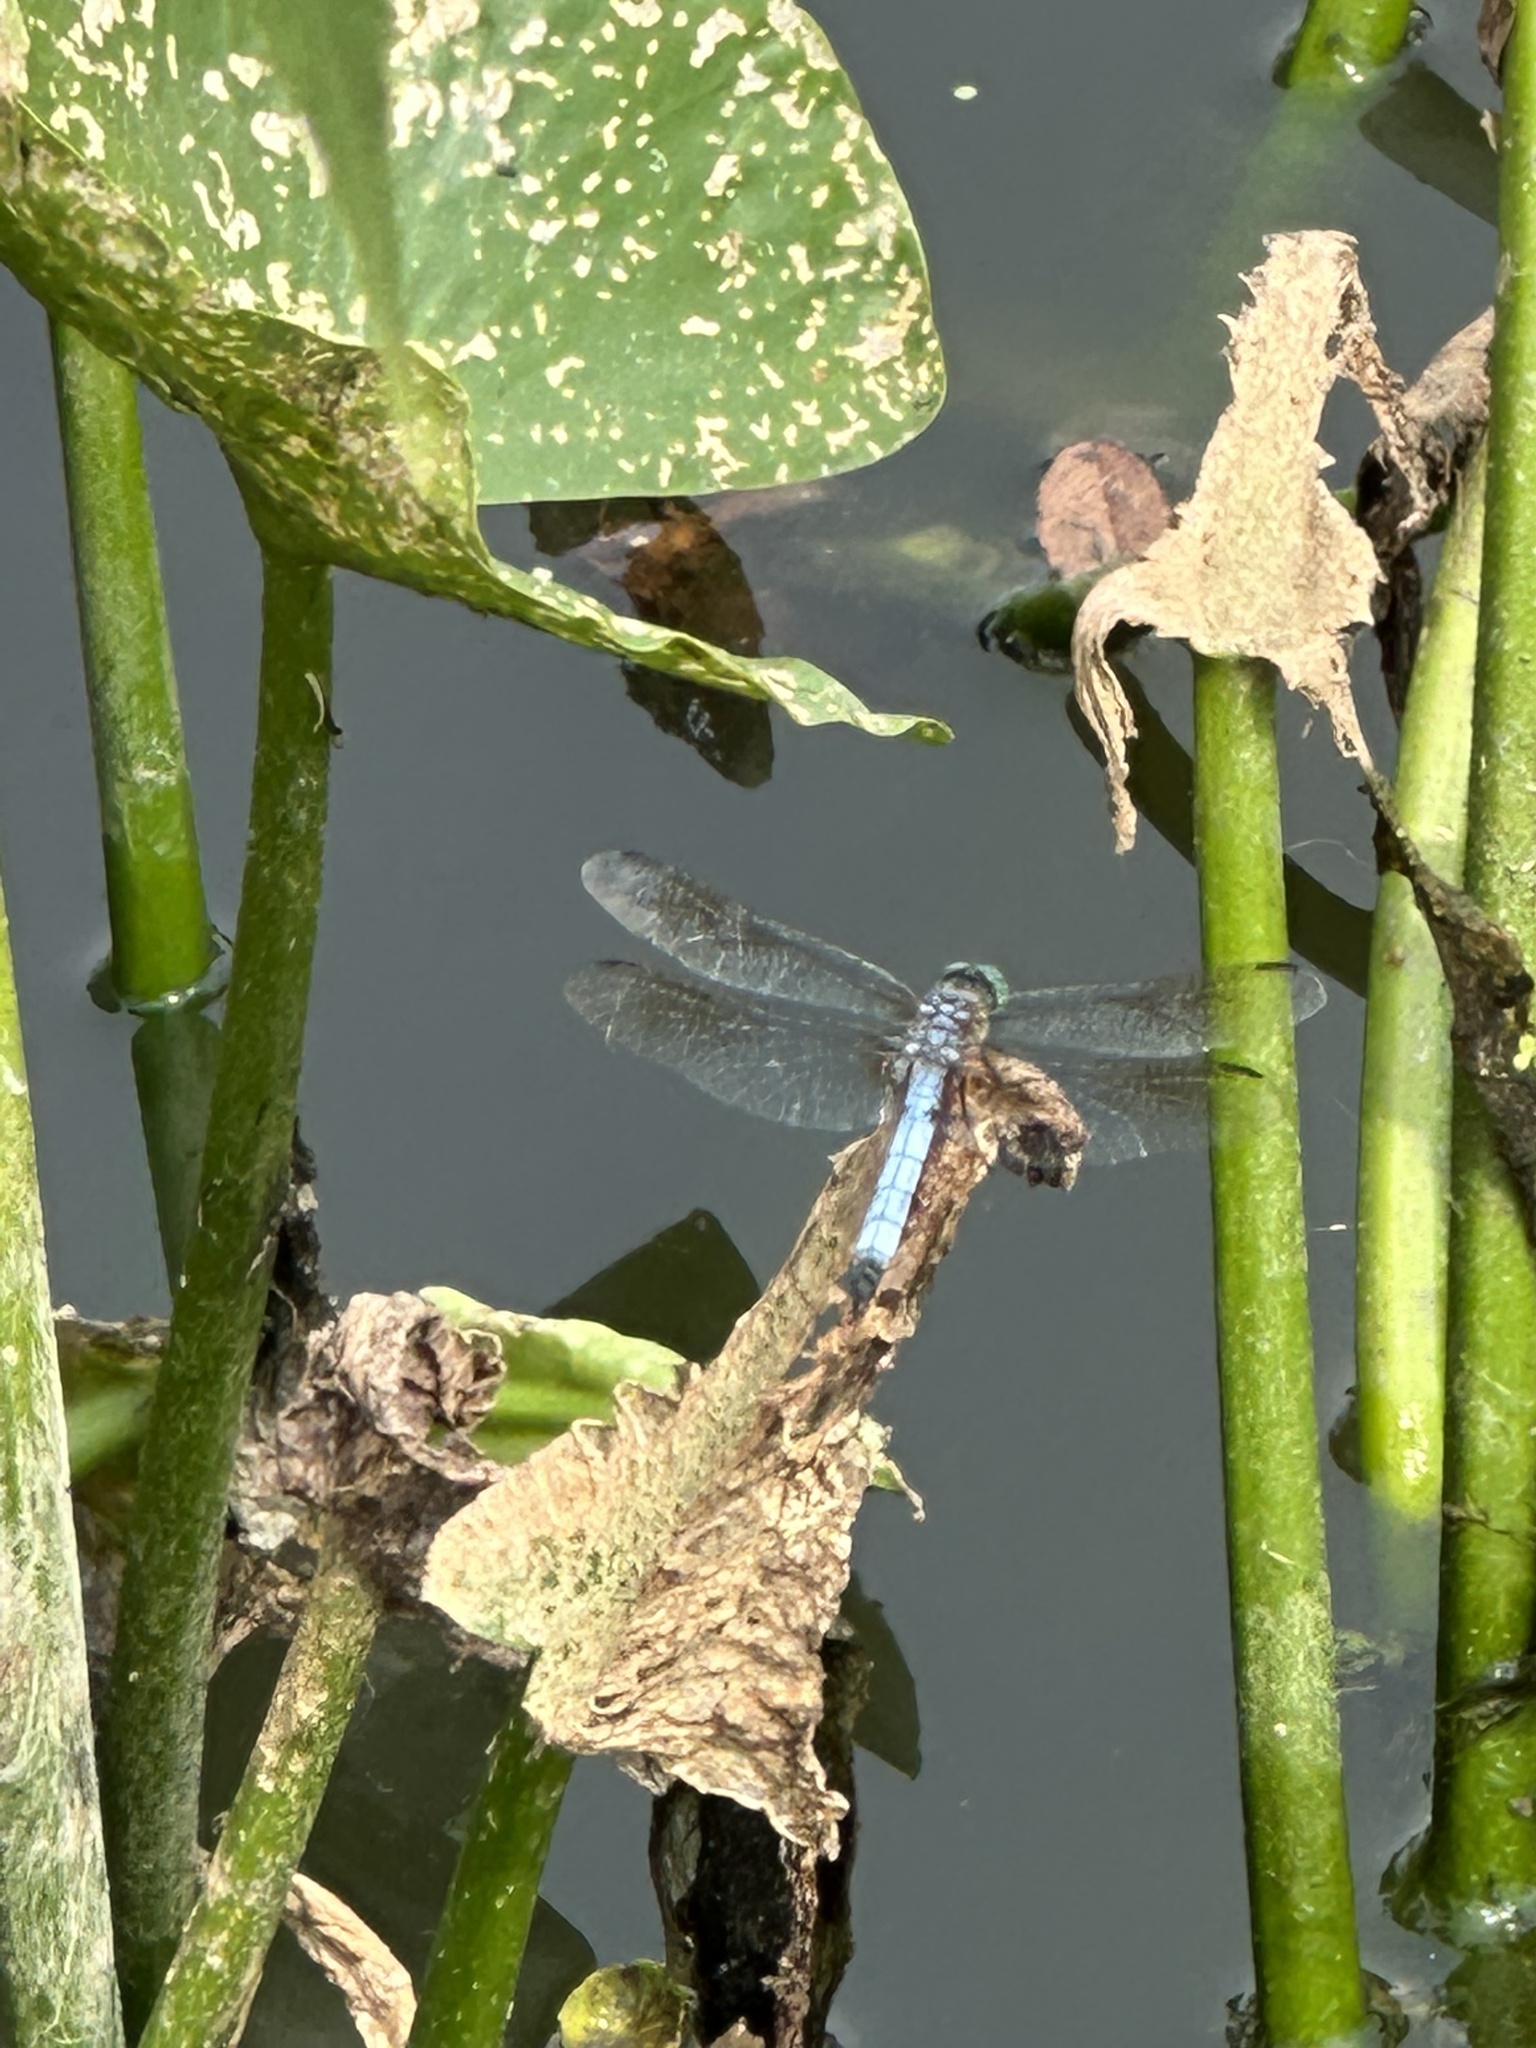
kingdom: Animalia
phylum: Arthropoda
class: Insecta
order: Odonata
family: Libellulidae
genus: Pachydiplax
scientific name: Pachydiplax longipennis
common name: Blue dasher
